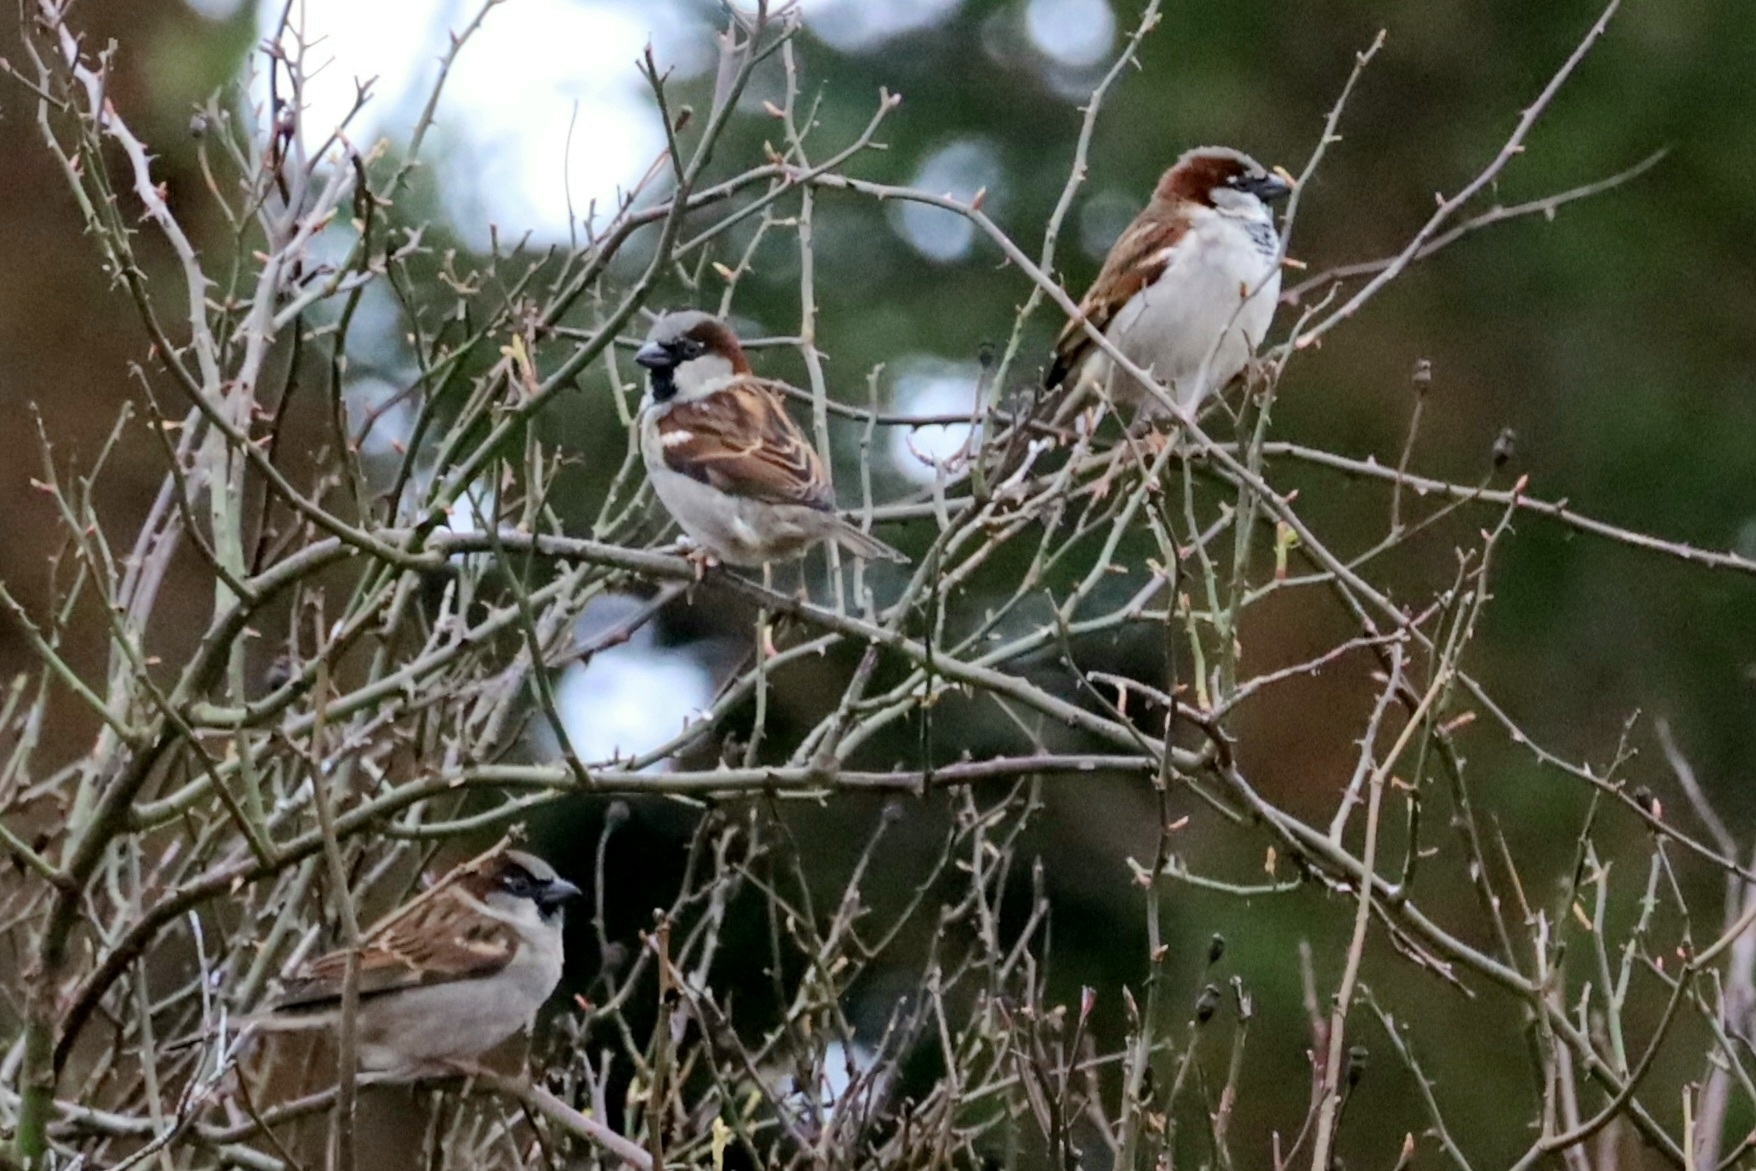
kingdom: Animalia
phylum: Chordata
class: Aves
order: Passeriformes
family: Passeridae
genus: Passer
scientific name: Passer domesticus
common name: House sparrow
